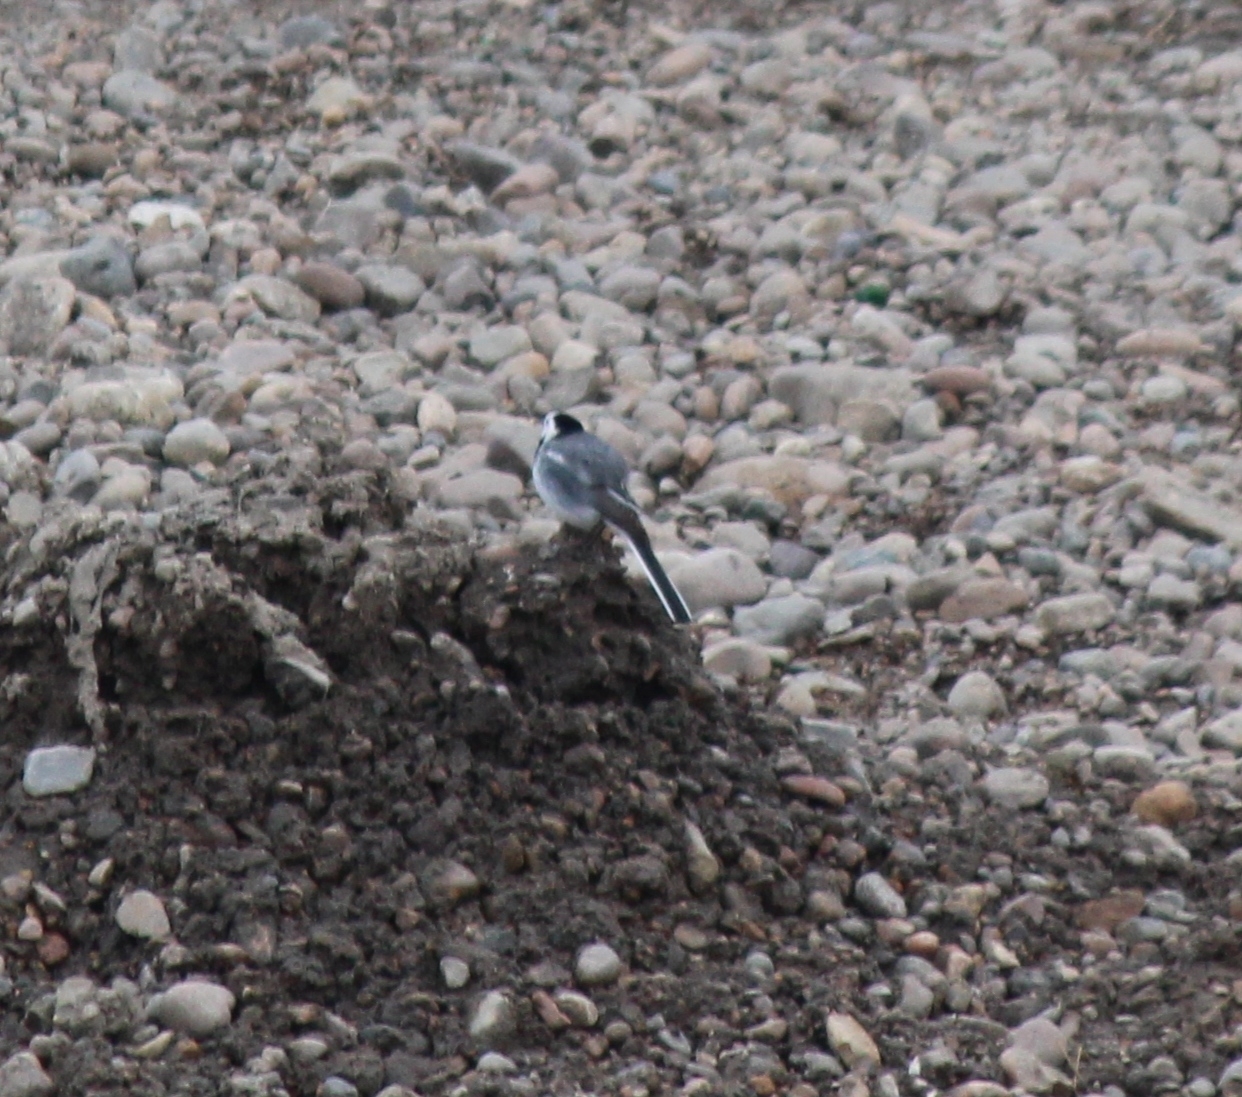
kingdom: Animalia
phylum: Chordata
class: Aves
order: Passeriformes
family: Motacillidae
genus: Motacilla
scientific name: Motacilla alba
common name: White wagtail
